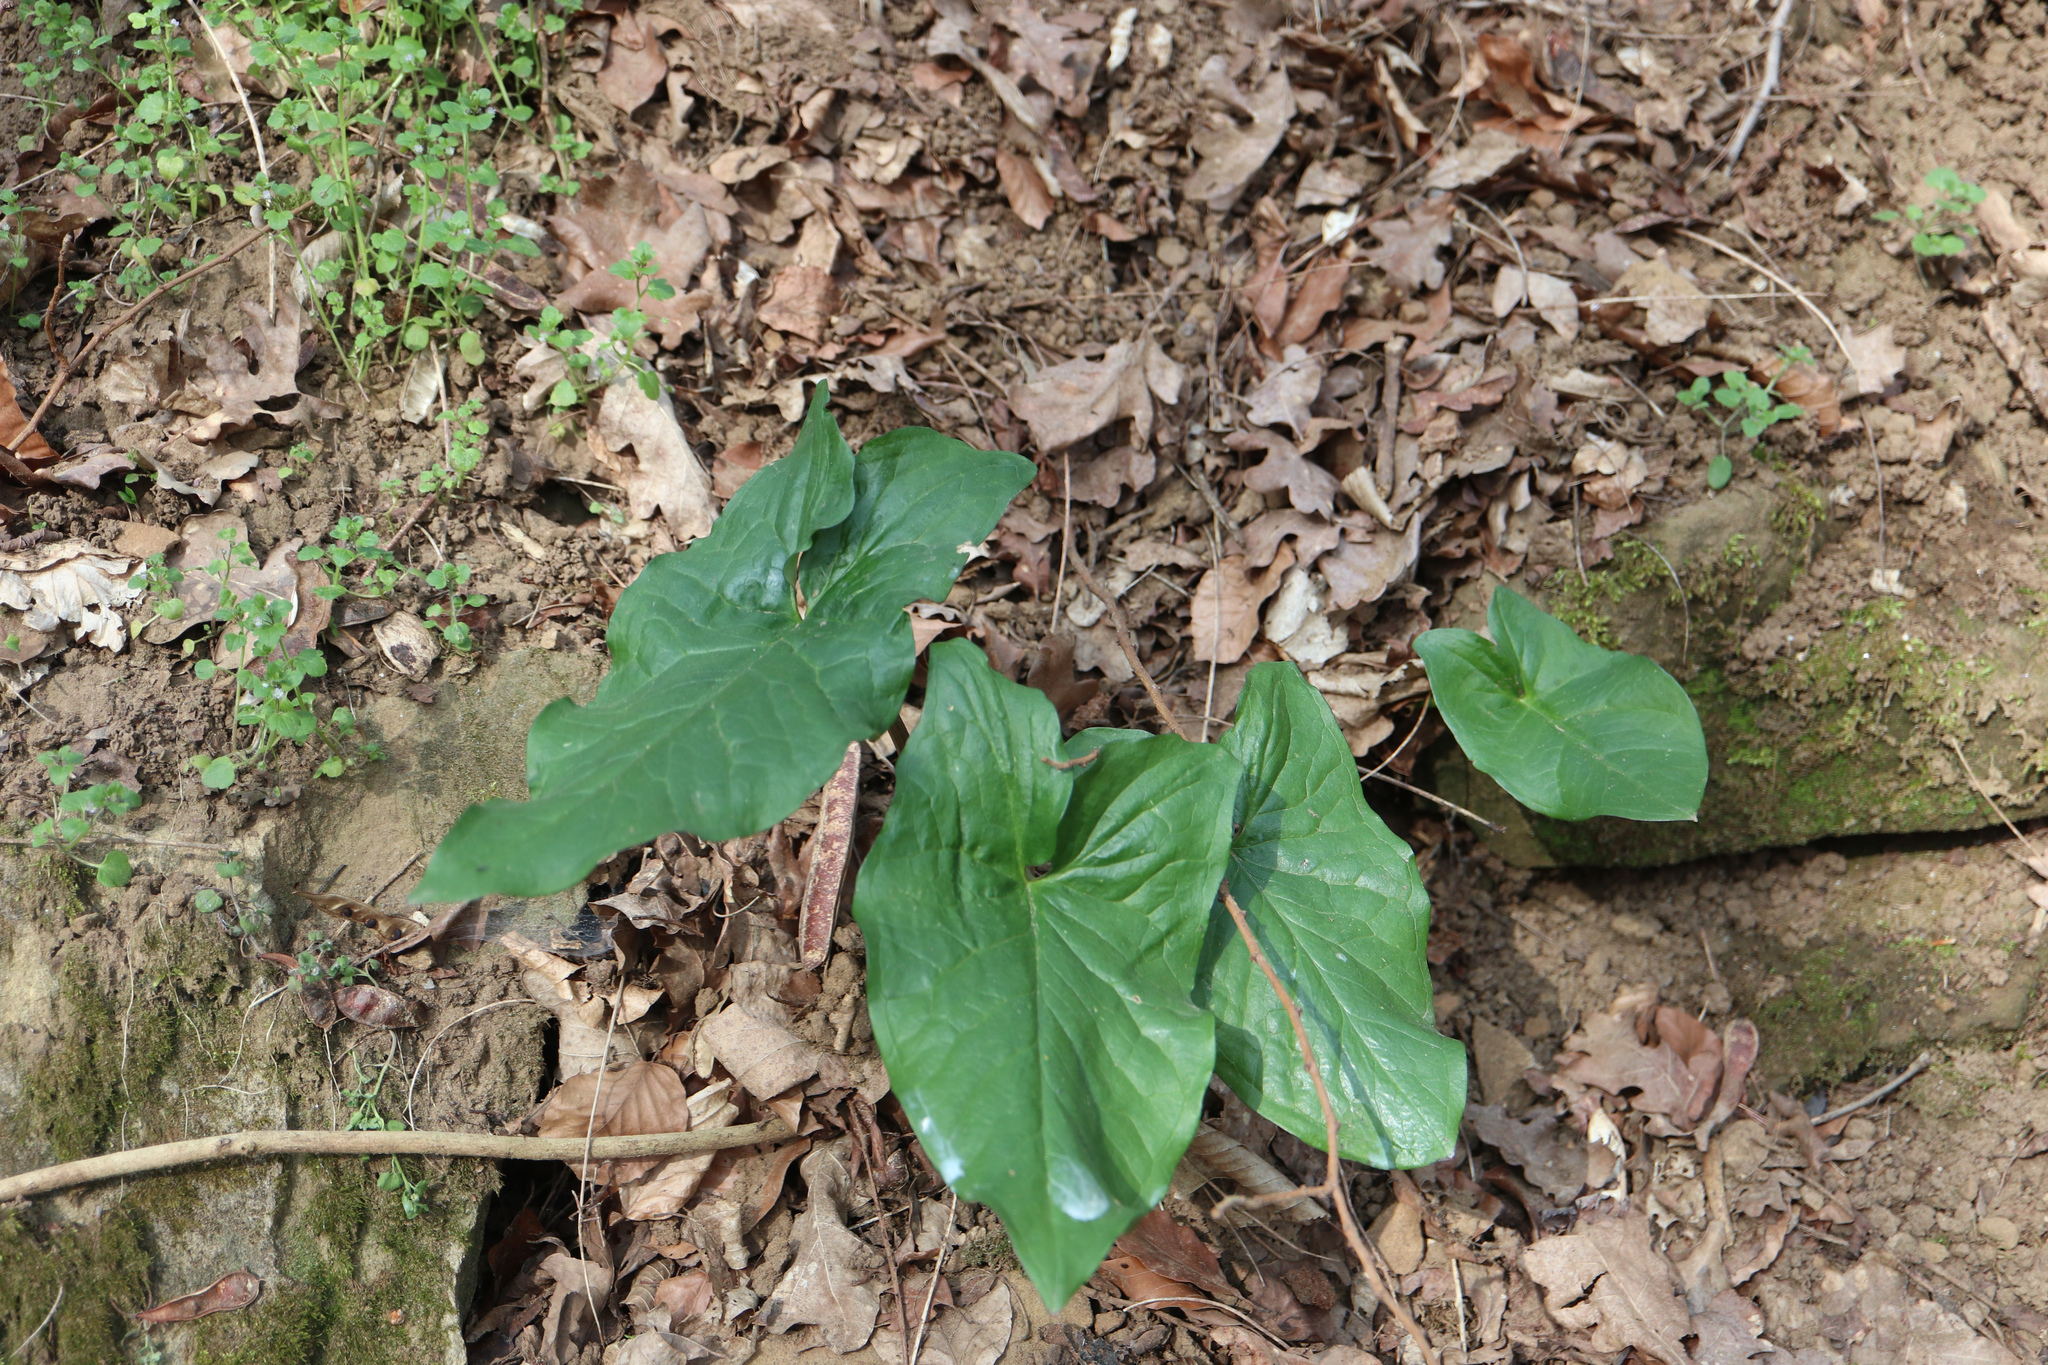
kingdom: Plantae
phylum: Tracheophyta
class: Liliopsida
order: Alismatales
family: Araceae
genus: Arum
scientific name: Arum maculatum
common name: Lords-and-ladies
